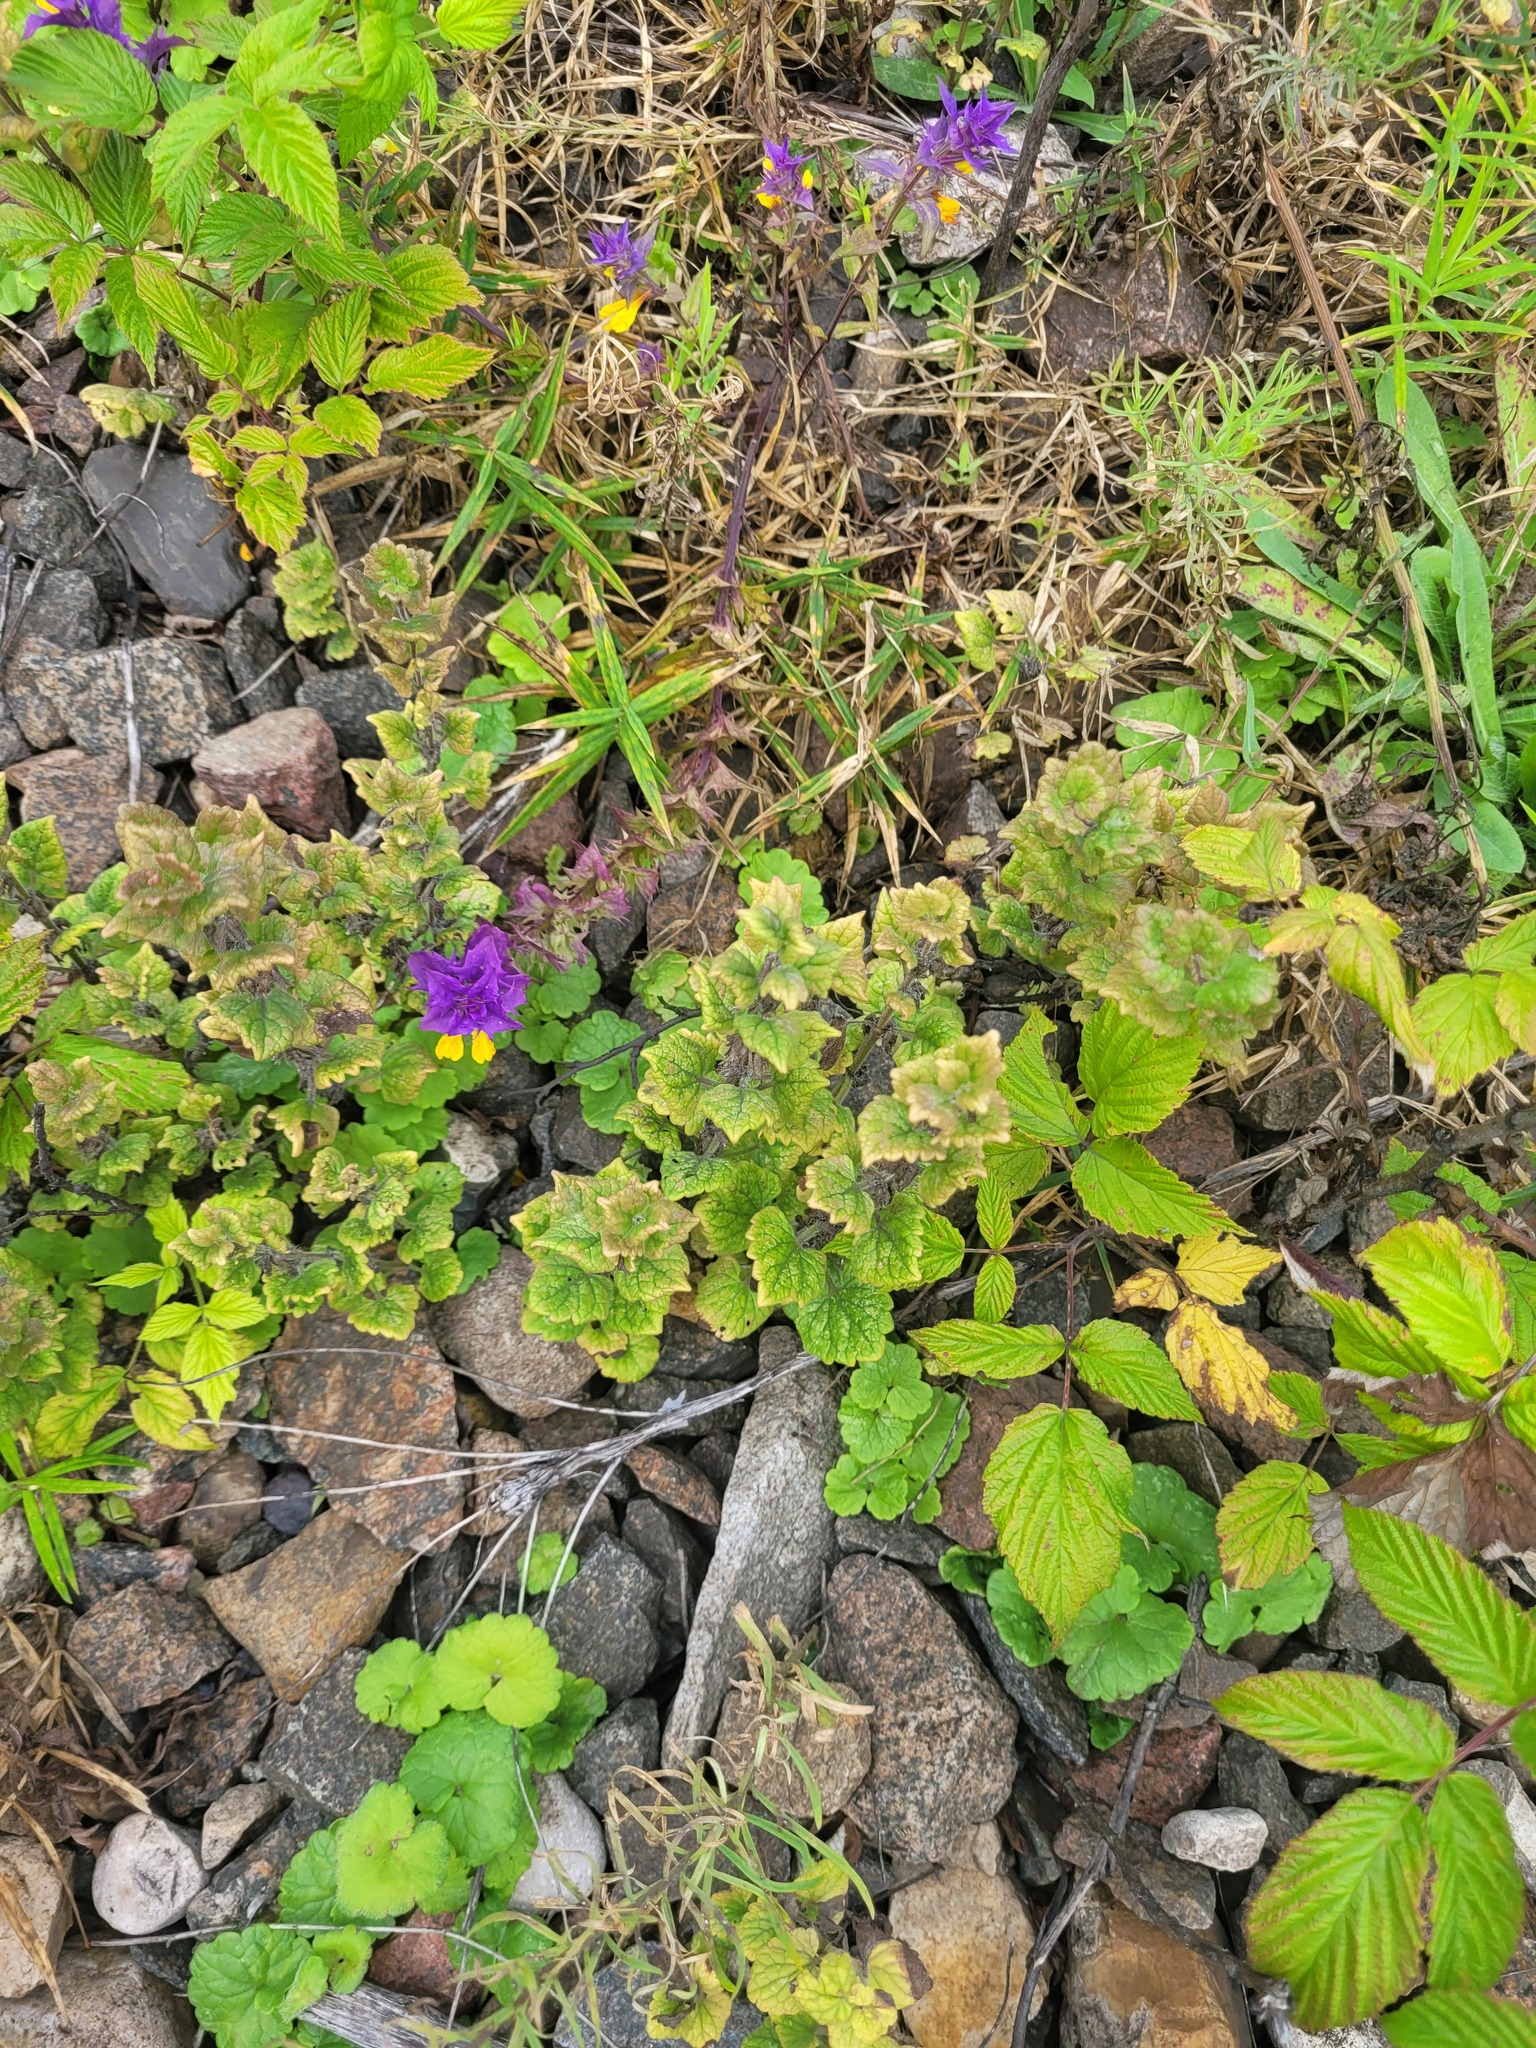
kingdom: Plantae
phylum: Tracheophyta
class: Magnoliopsida
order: Lamiales
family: Lamiaceae
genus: Glechoma
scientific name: Glechoma hederacea
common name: Ground ivy
